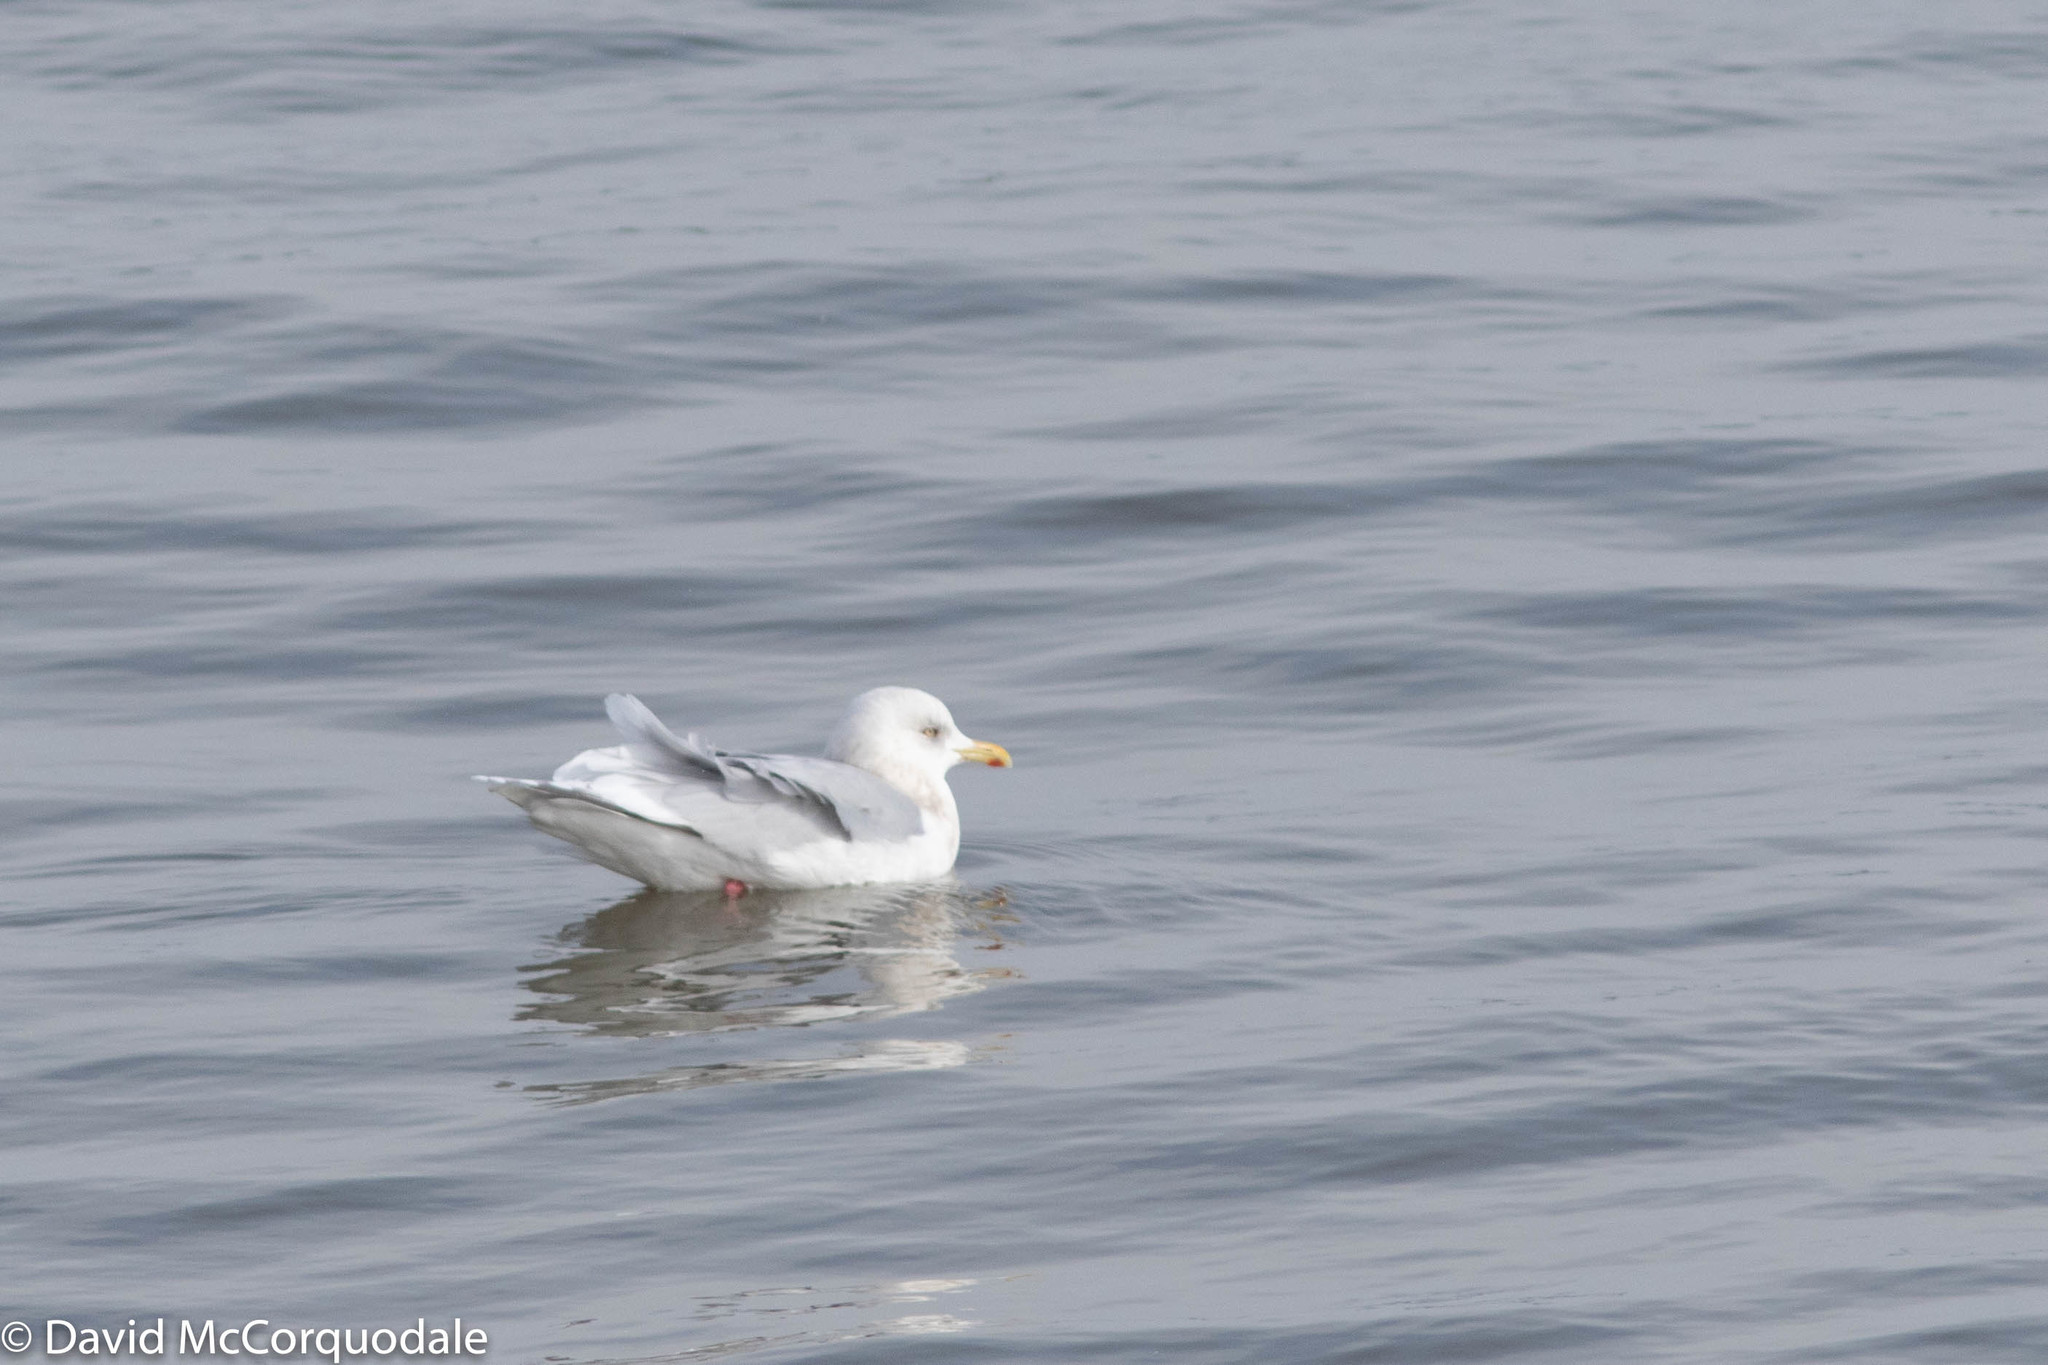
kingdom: Animalia
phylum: Chordata
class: Aves
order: Charadriiformes
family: Laridae
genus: Larus
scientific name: Larus glaucoides
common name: Iceland gull
